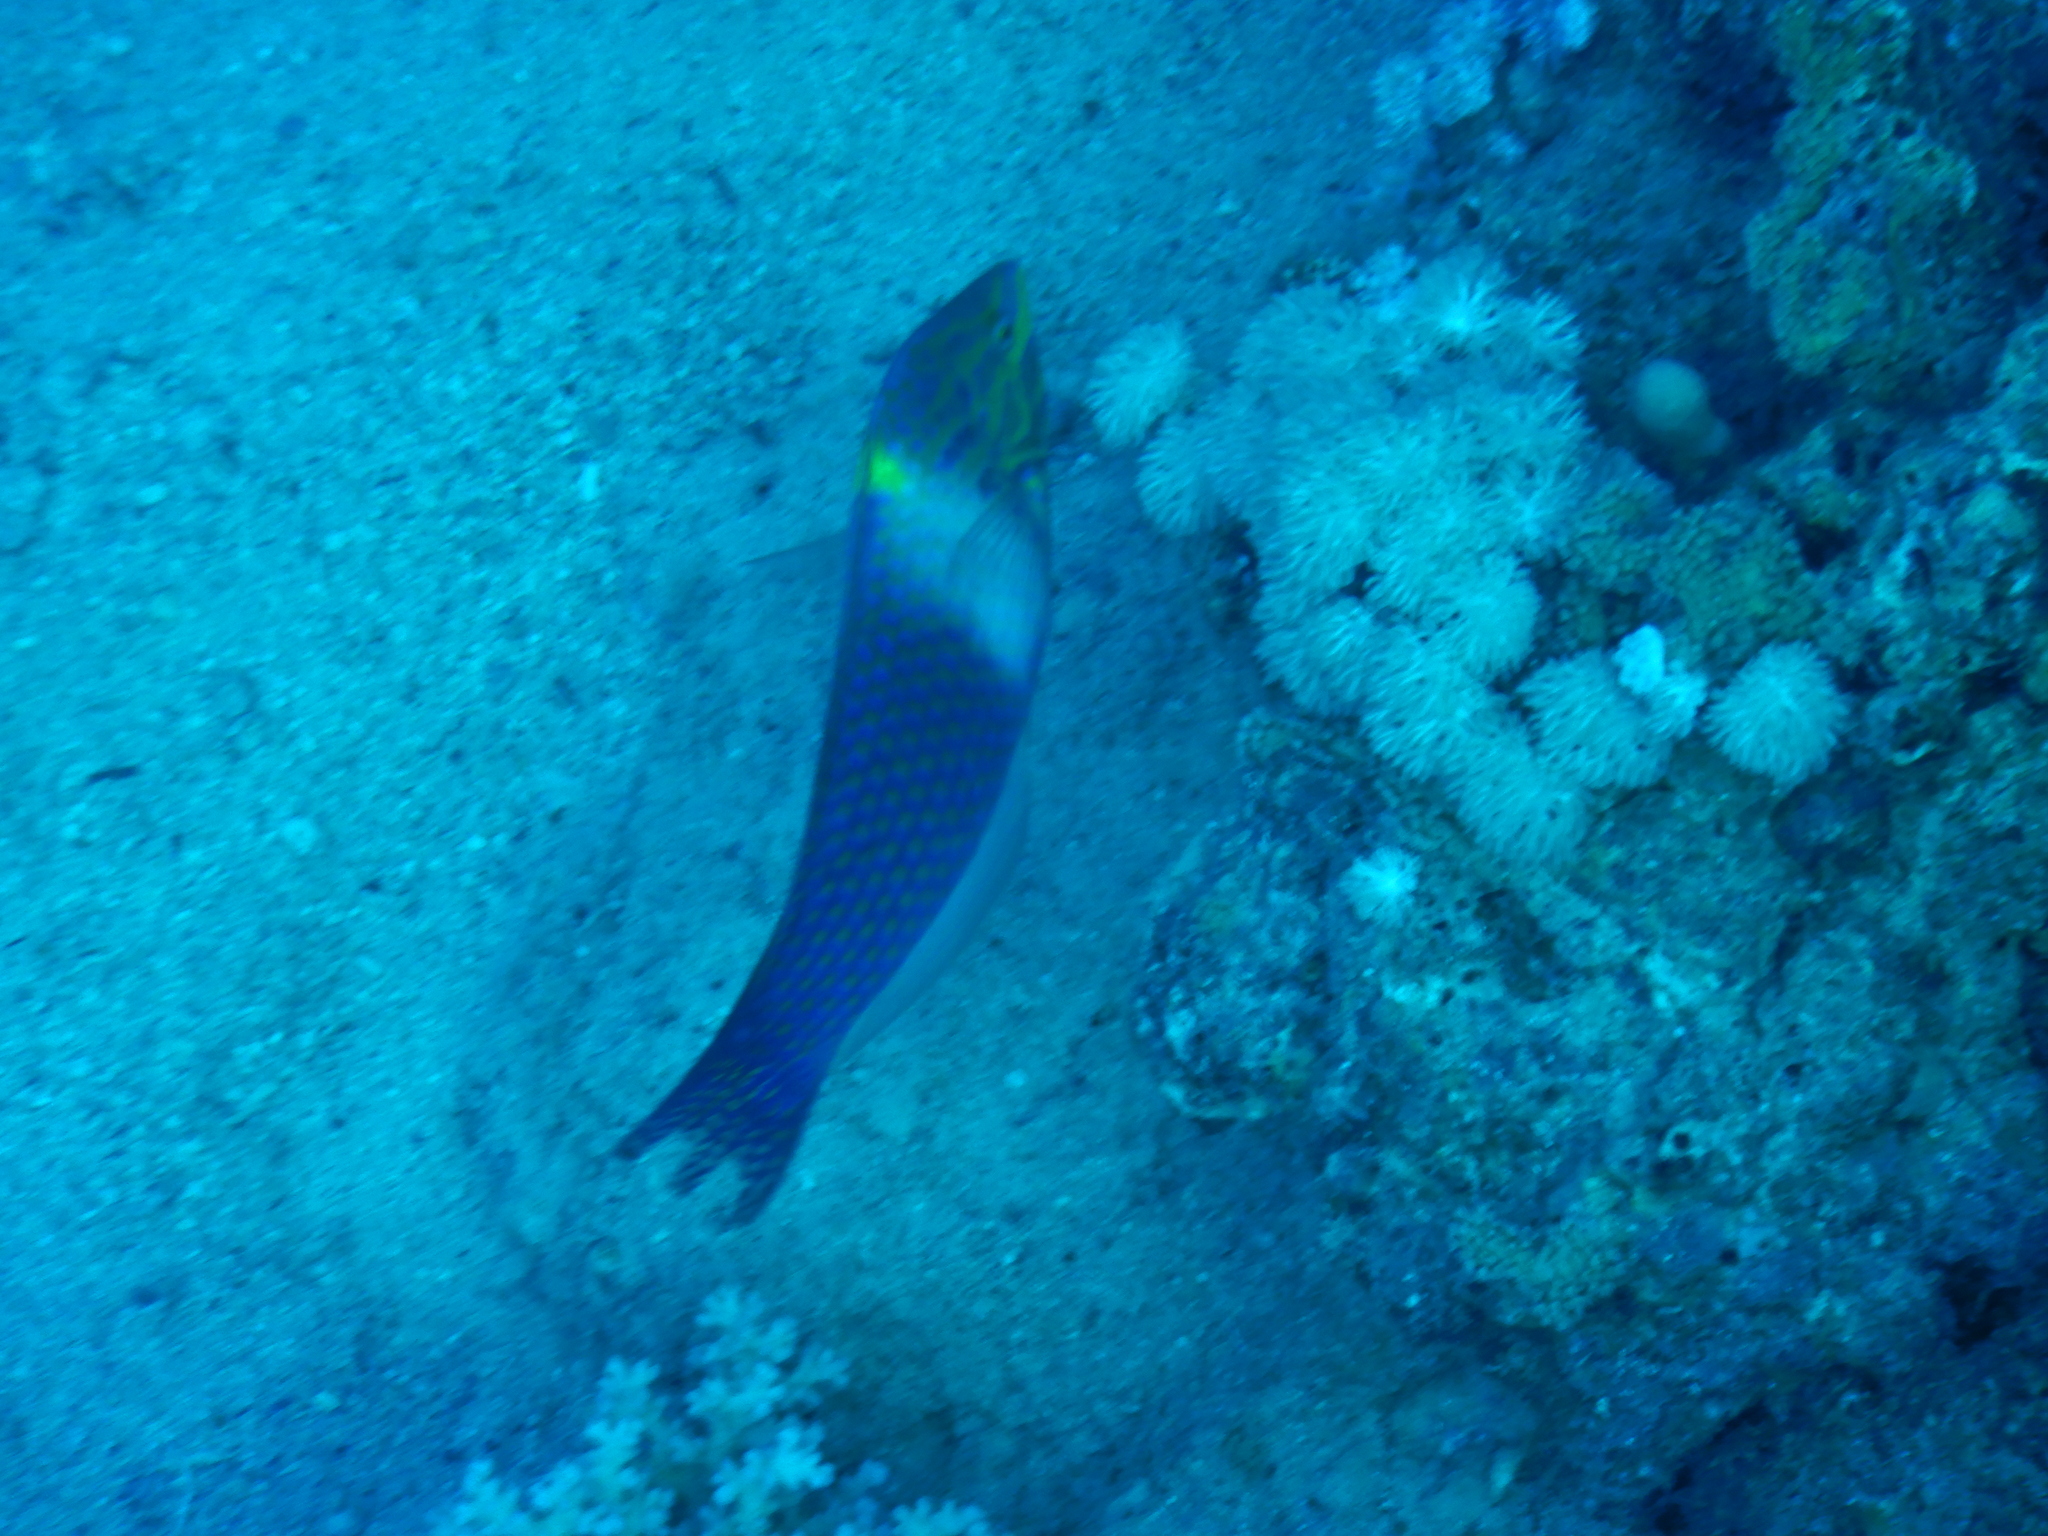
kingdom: Animalia
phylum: Chordata
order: Perciformes
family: Labridae
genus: Halichoeres
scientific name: Halichoeres hortulanus
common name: Checkerboard wrasse
